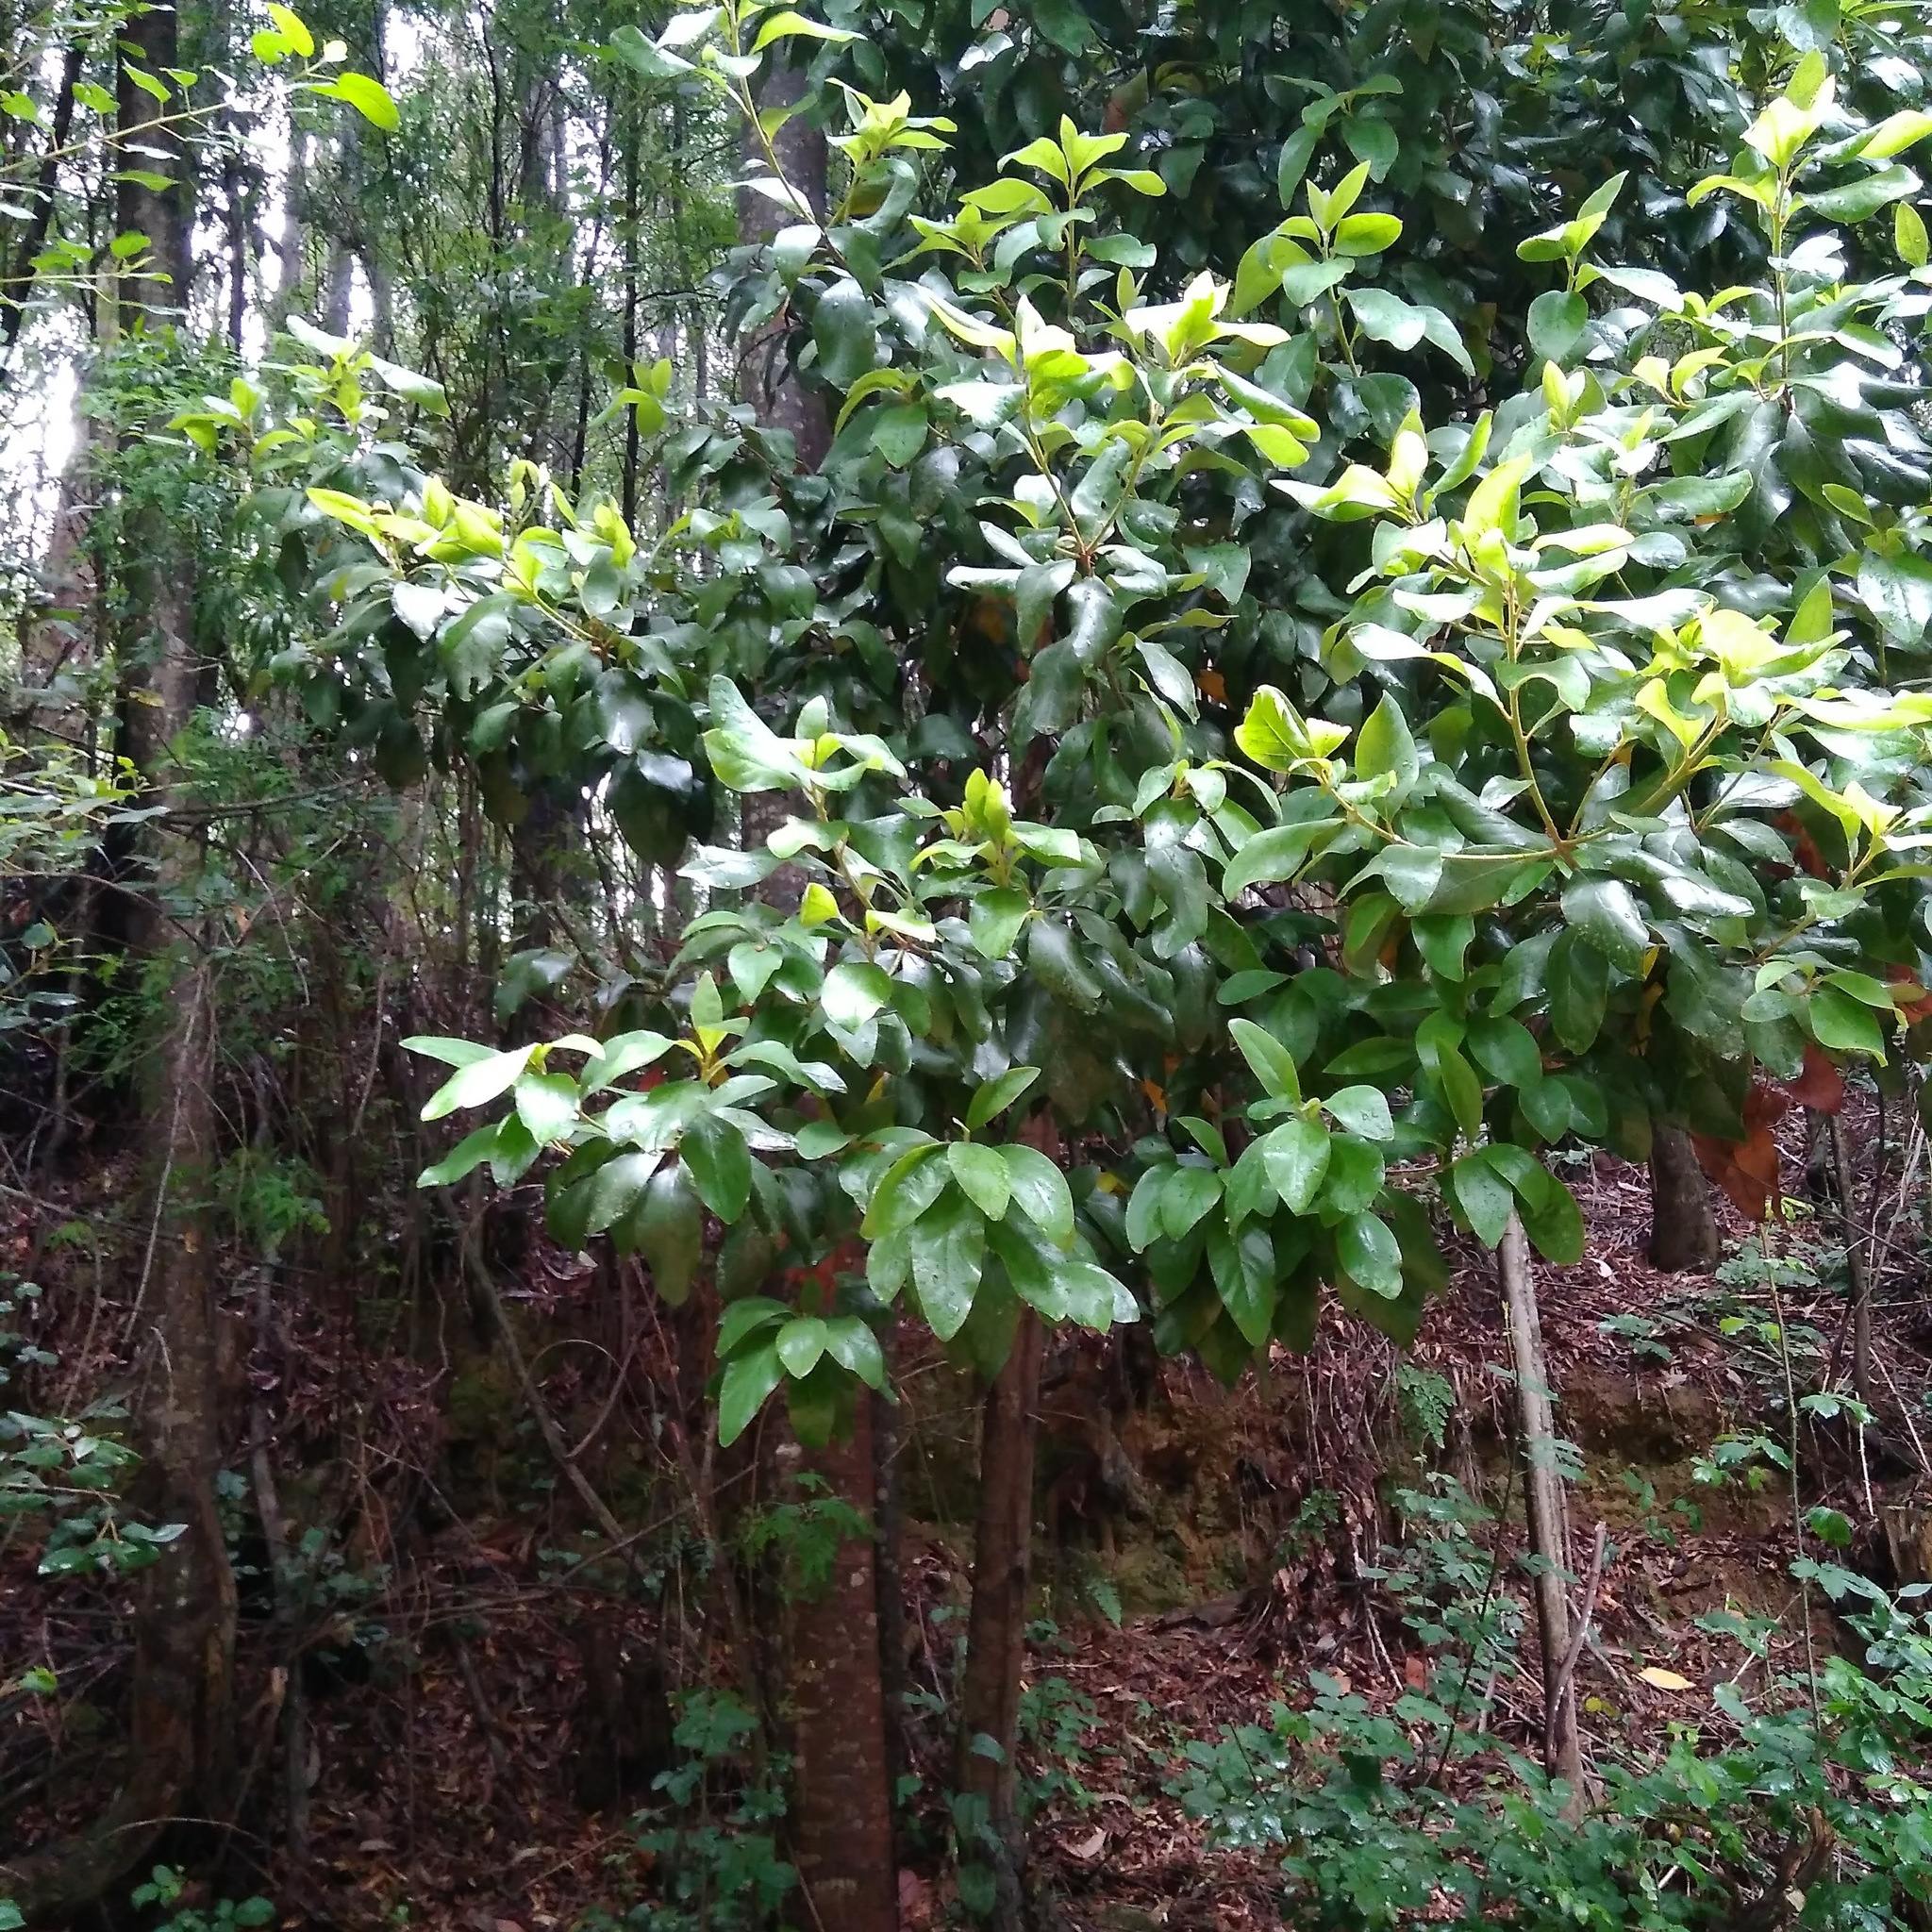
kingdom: Plantae
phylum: Tracheophyta
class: Magnoliopsida
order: Laurales
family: Lauraceae
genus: Persea
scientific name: Persea lingue
